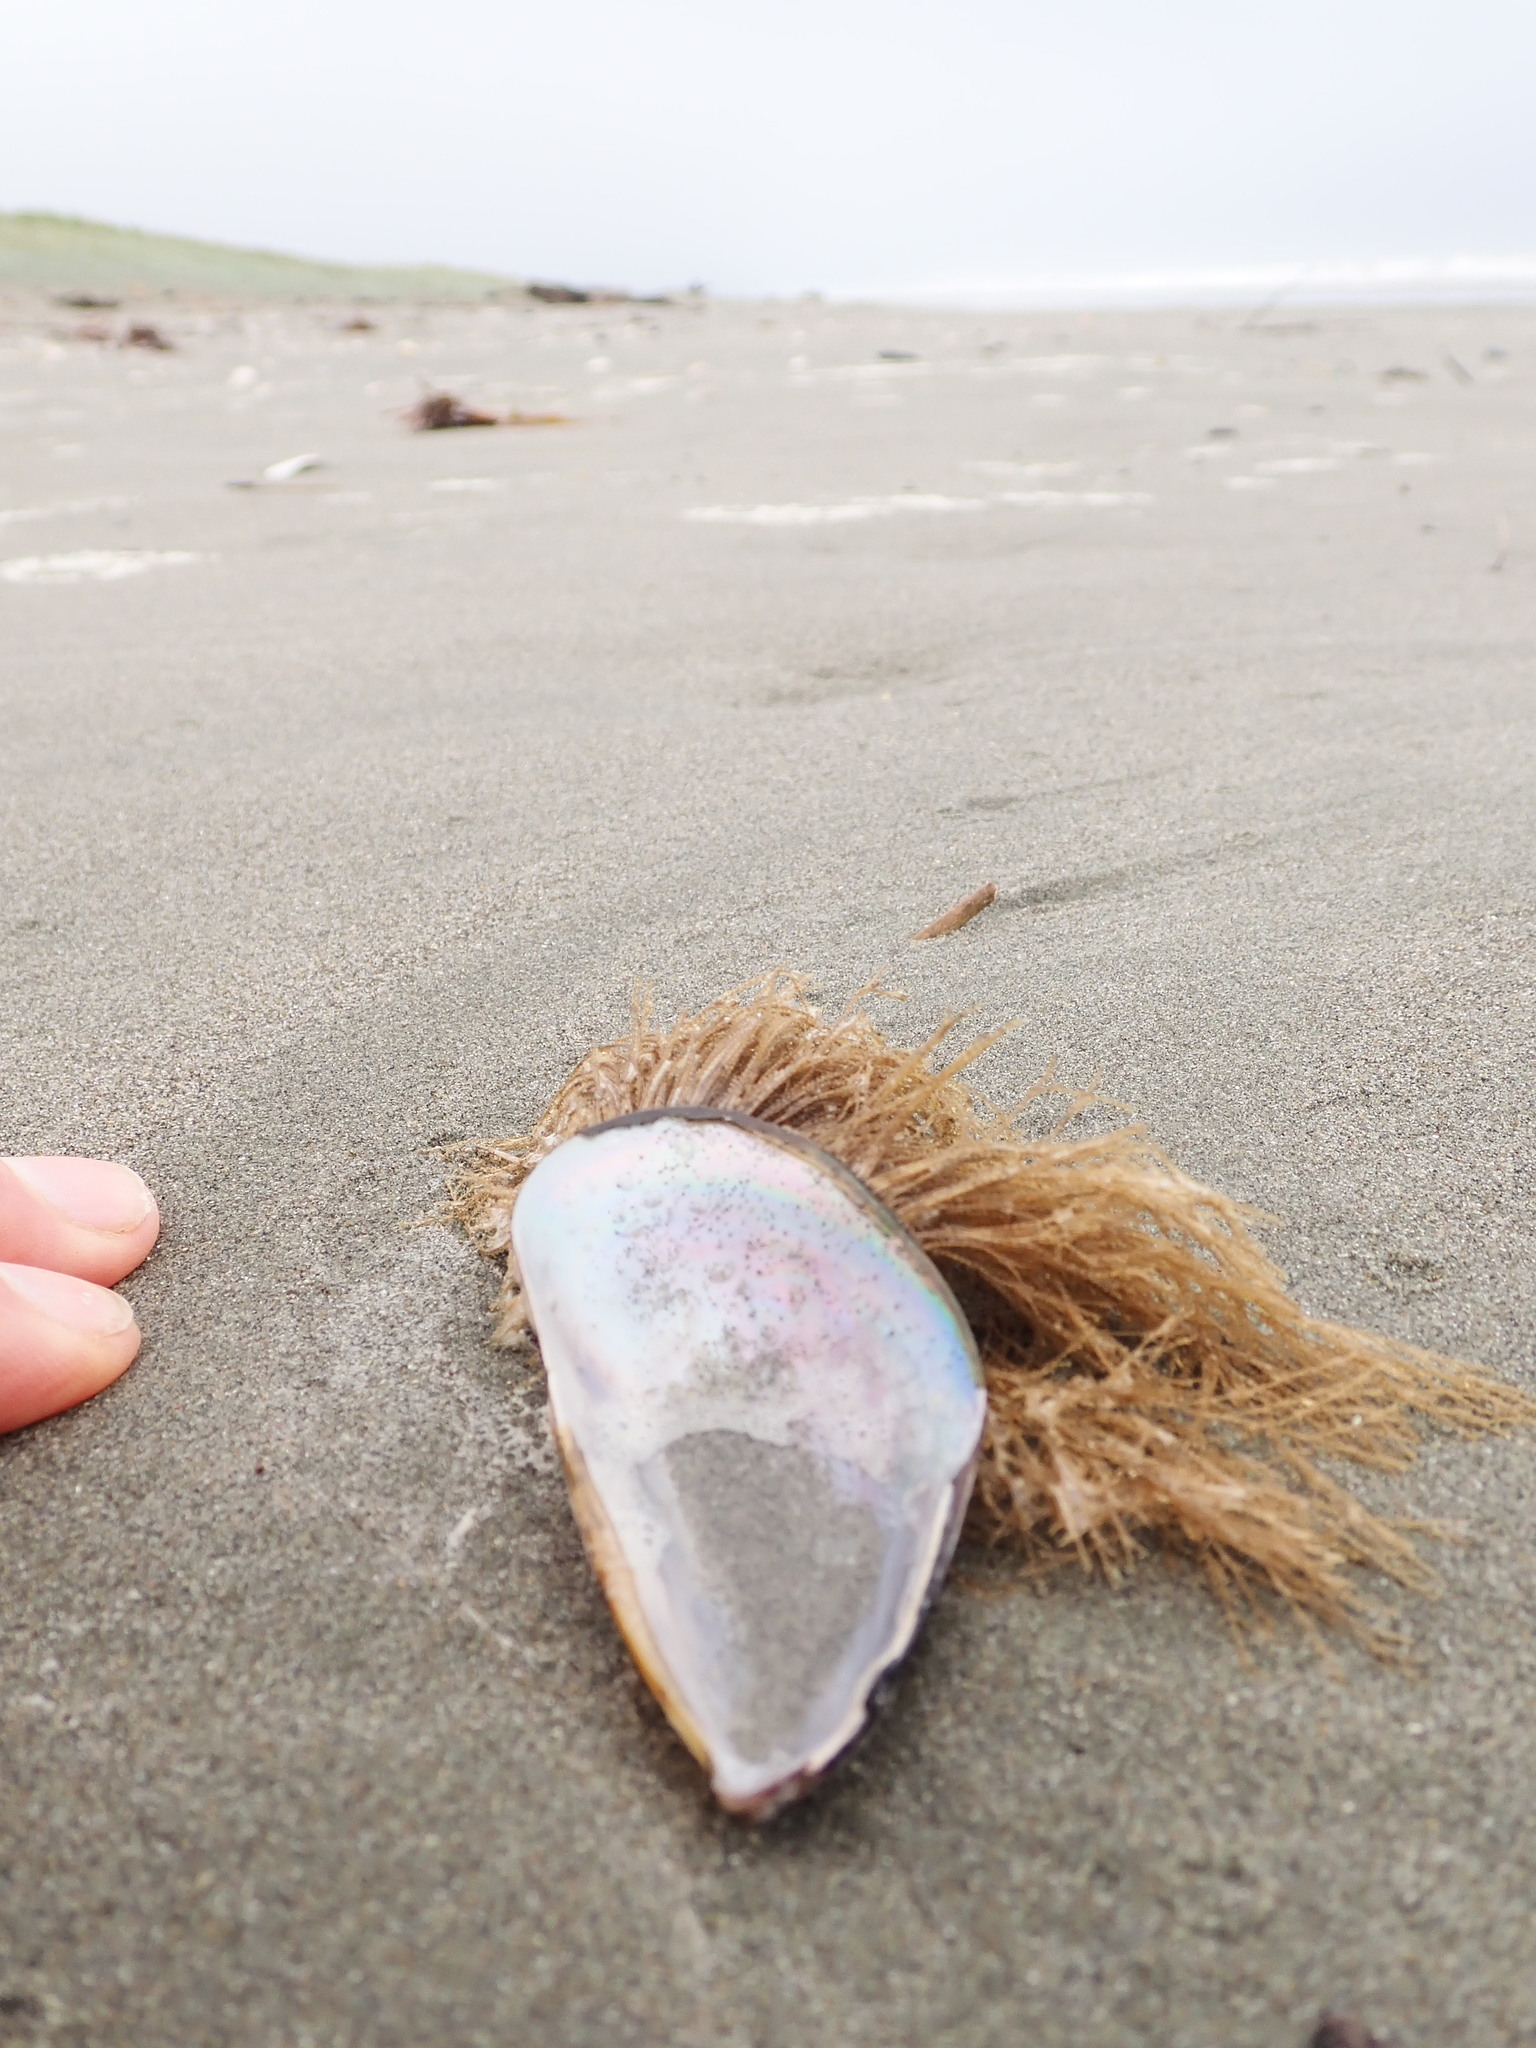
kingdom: Animalia
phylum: Cnidaria
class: Hydrozoa
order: Leptothecata
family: Sertulariidae
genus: Amphisbetia
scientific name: Amphisbetia bispinosa
